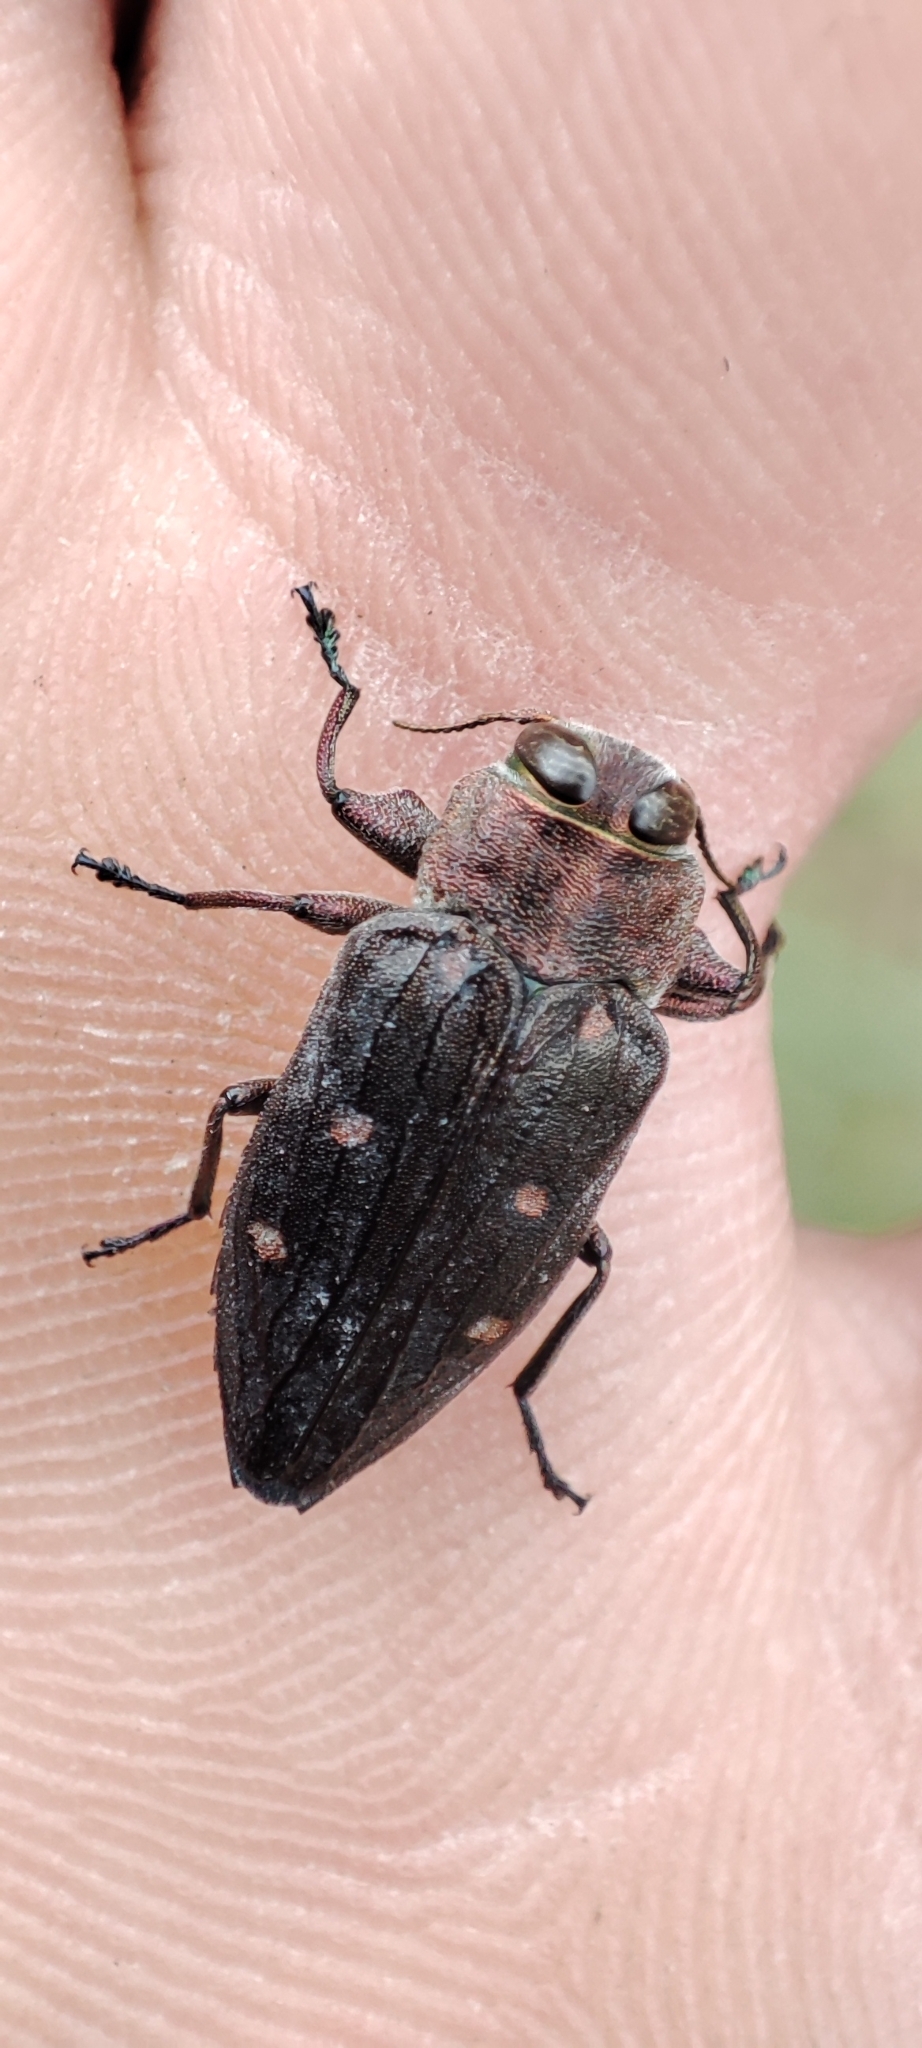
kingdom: Animalia
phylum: Arthropoda
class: Insecta
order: Coleoptera
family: Buprestidae
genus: Chrysobothris
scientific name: Chrysobothris affinis
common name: Beetle
